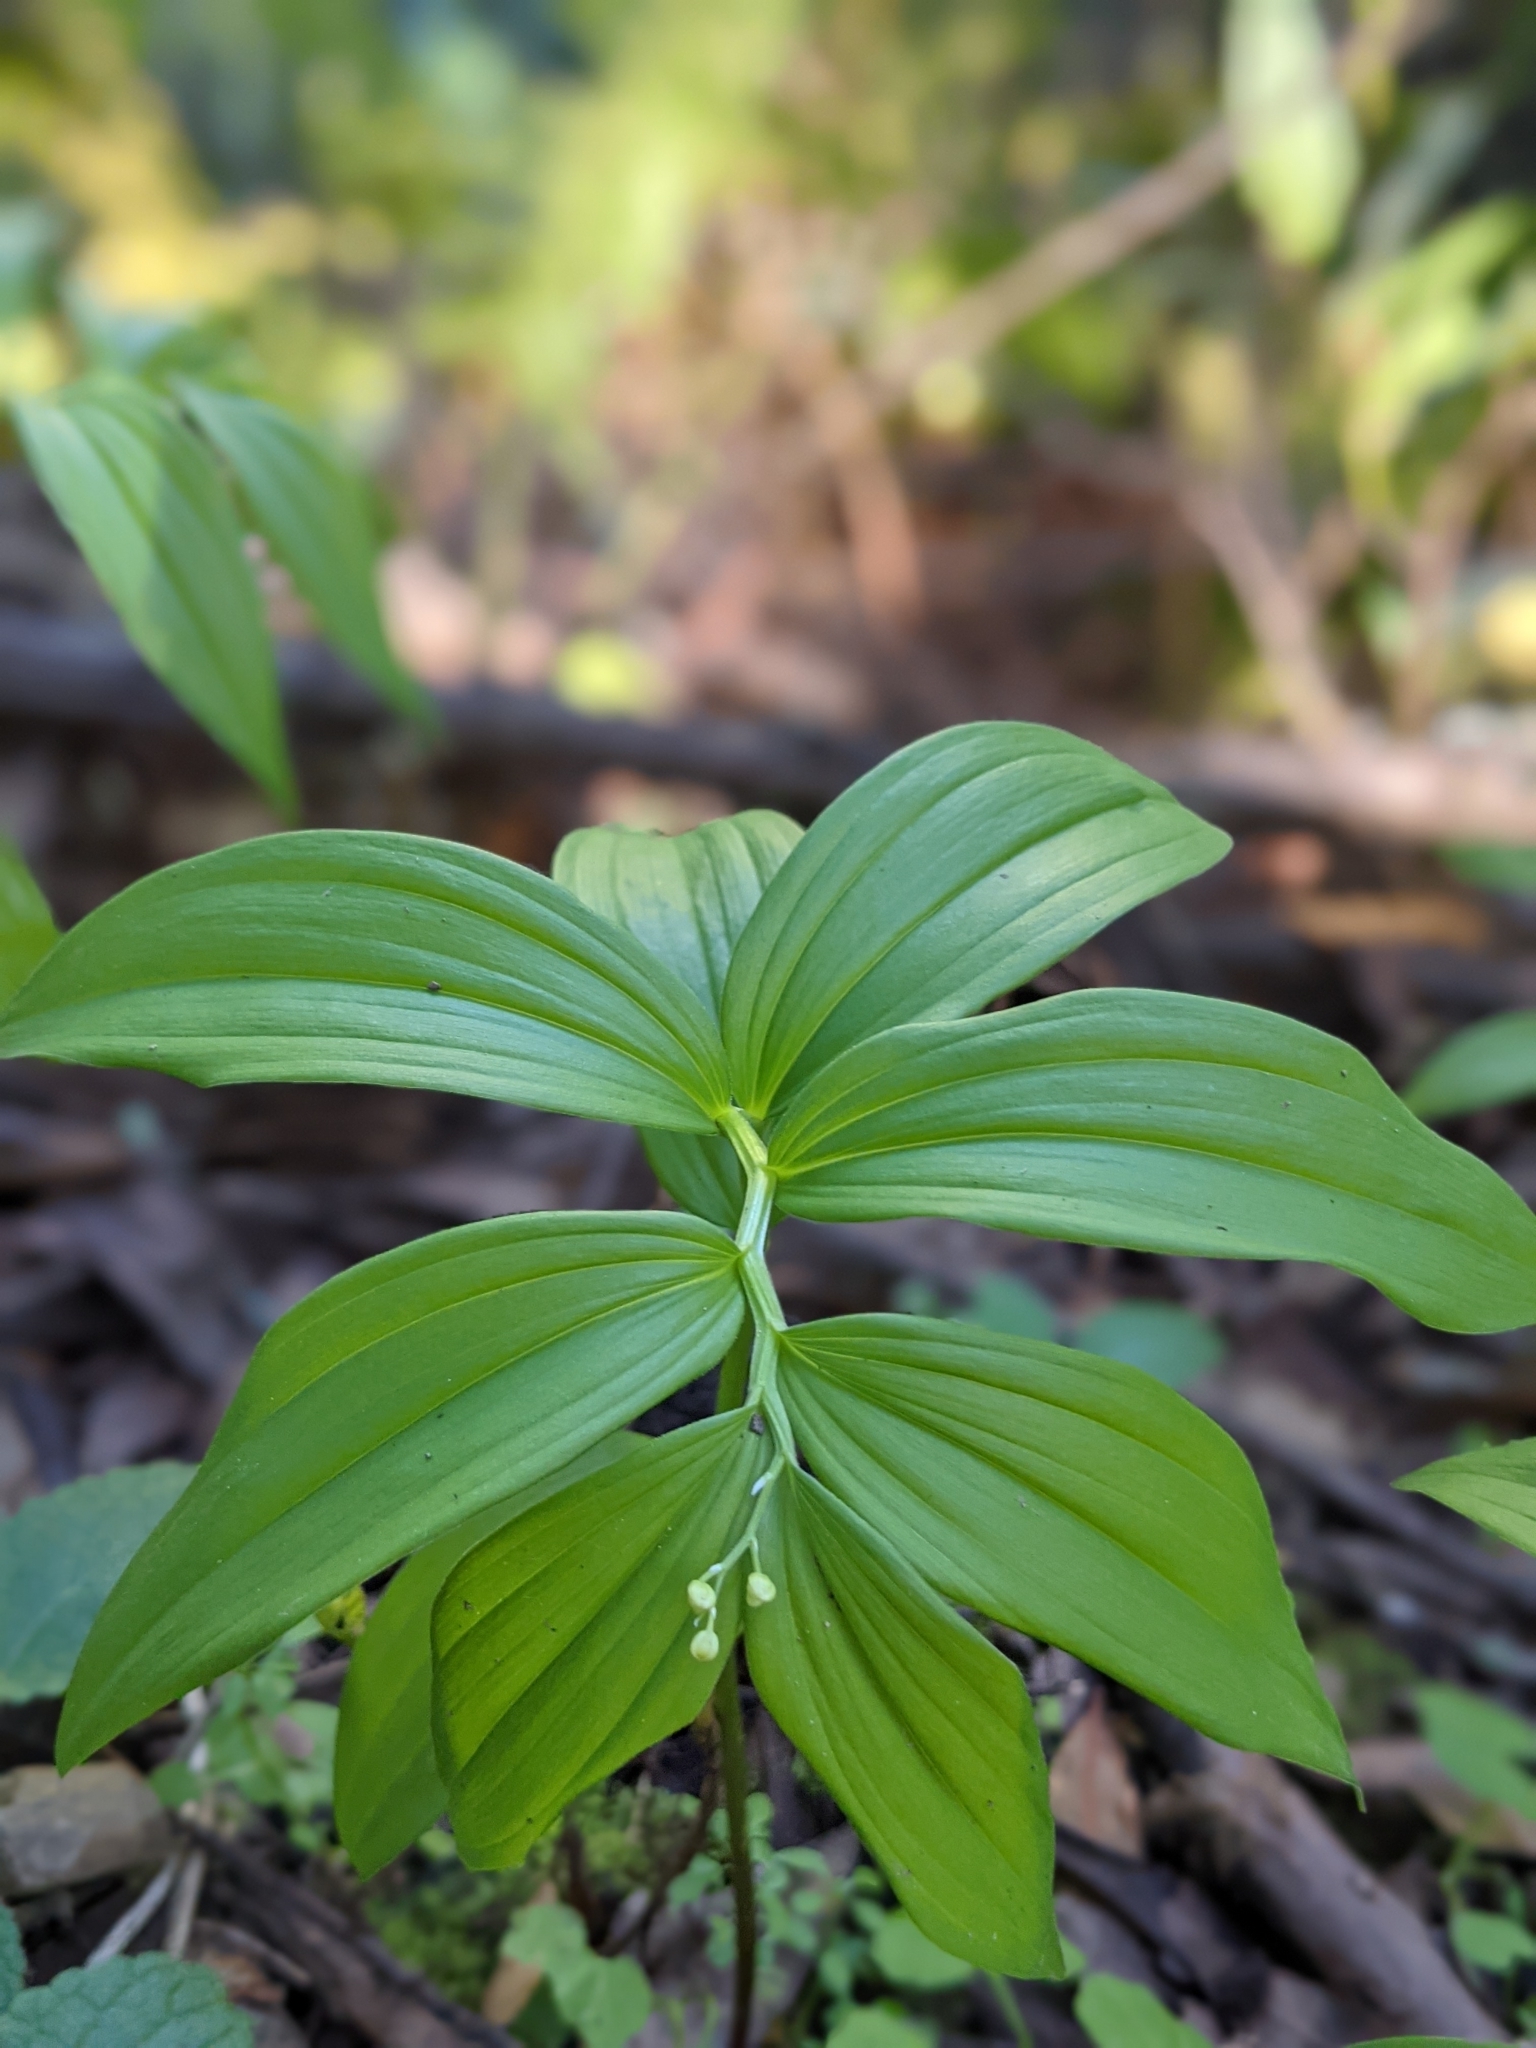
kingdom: Plantae
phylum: Tracheophyta
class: Liliopsida
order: Asparagales
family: Asparagaceae
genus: Maianthemum
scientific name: Maianthemum stellatum
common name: Little false solomon's seal
